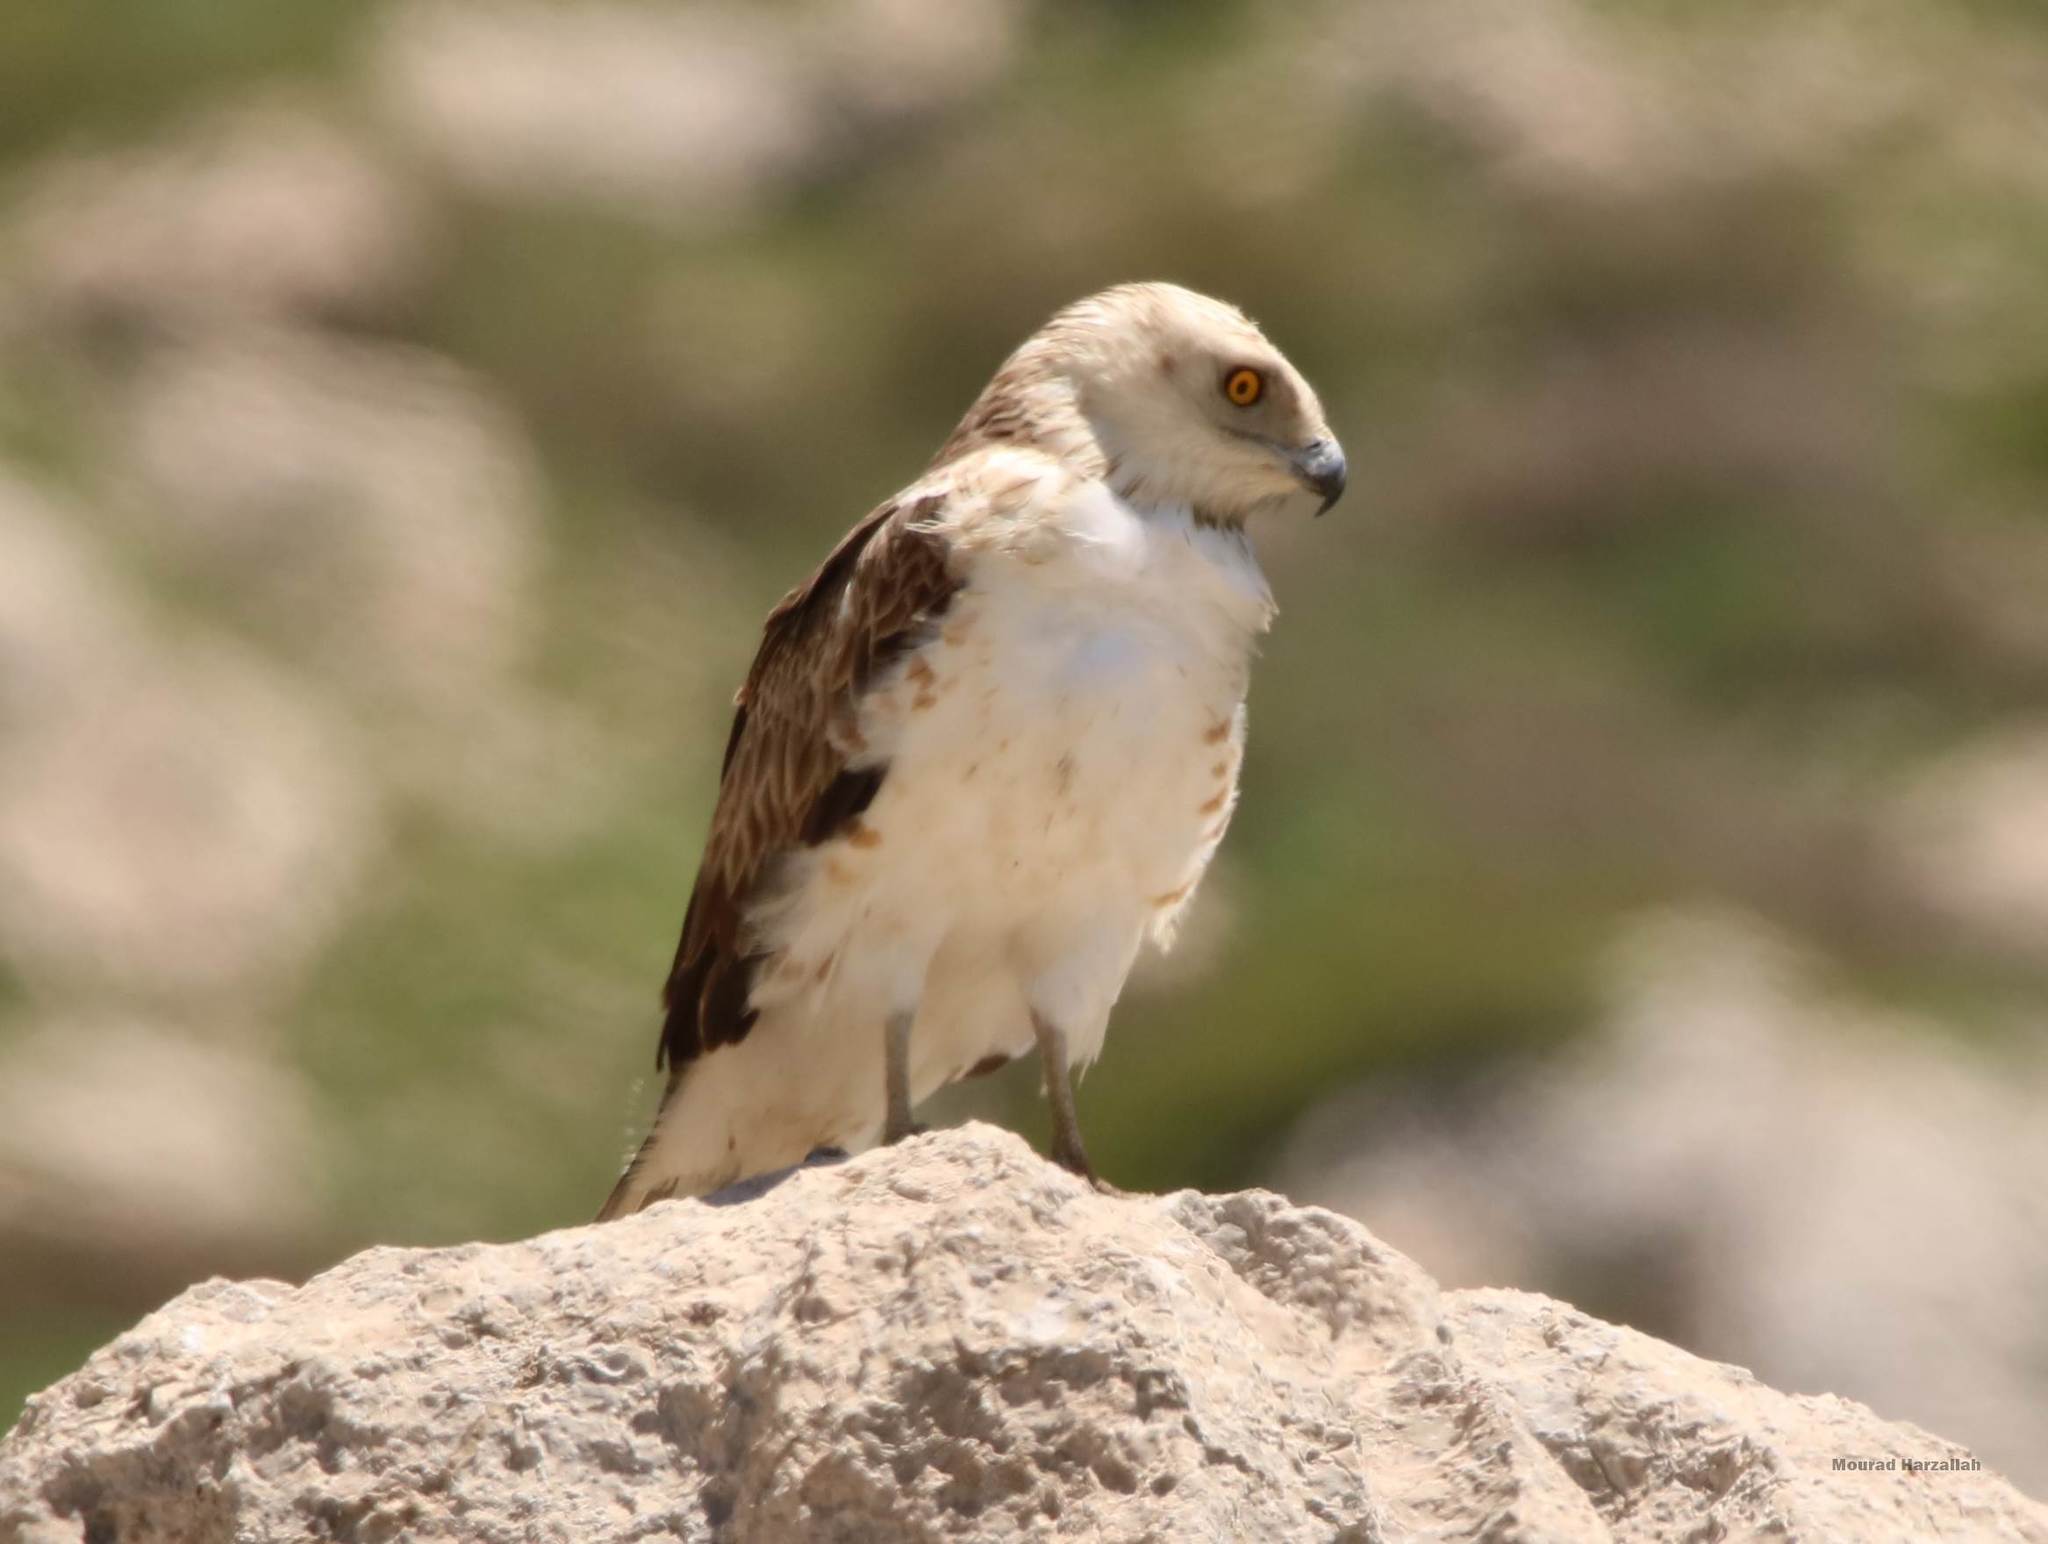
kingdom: Animalia
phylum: Chordata
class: Aves
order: Accipitriformes
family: Accipitridae
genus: Circaetus
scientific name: Circaetus gallicus
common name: Short-toed snake eagle
